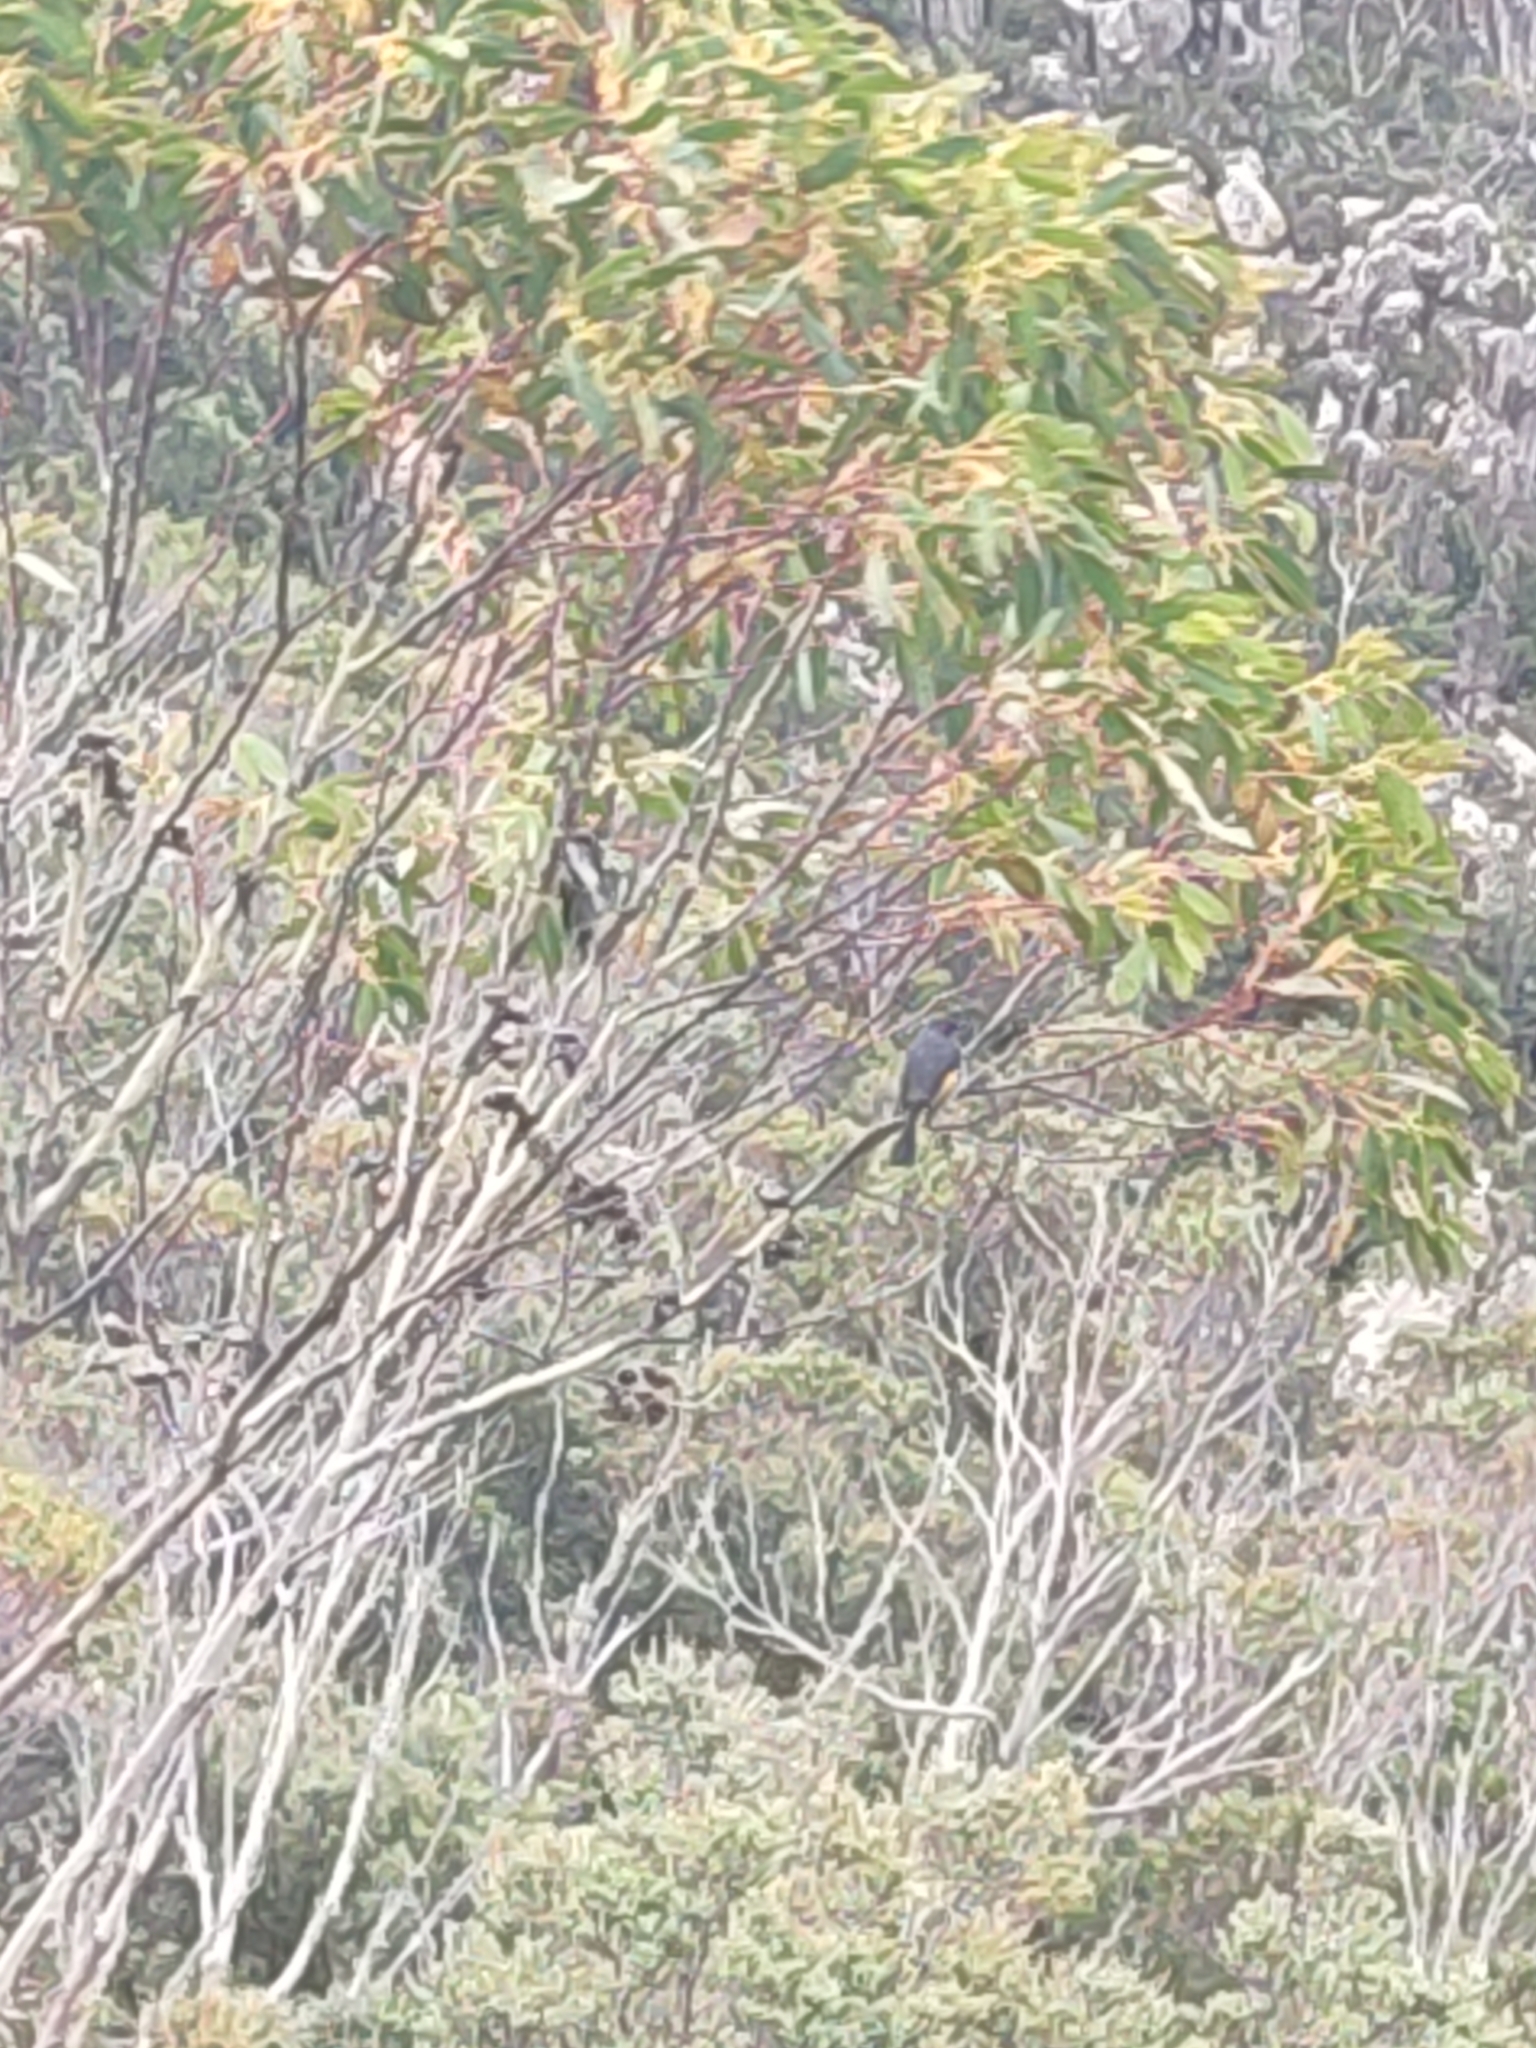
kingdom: Animalia
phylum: Chordata
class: Aves
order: Passeriformes
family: Meliphagidae
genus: Phylidonyris
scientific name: Phylidonyris pyrrhopterus
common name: Crescent honeyeater
